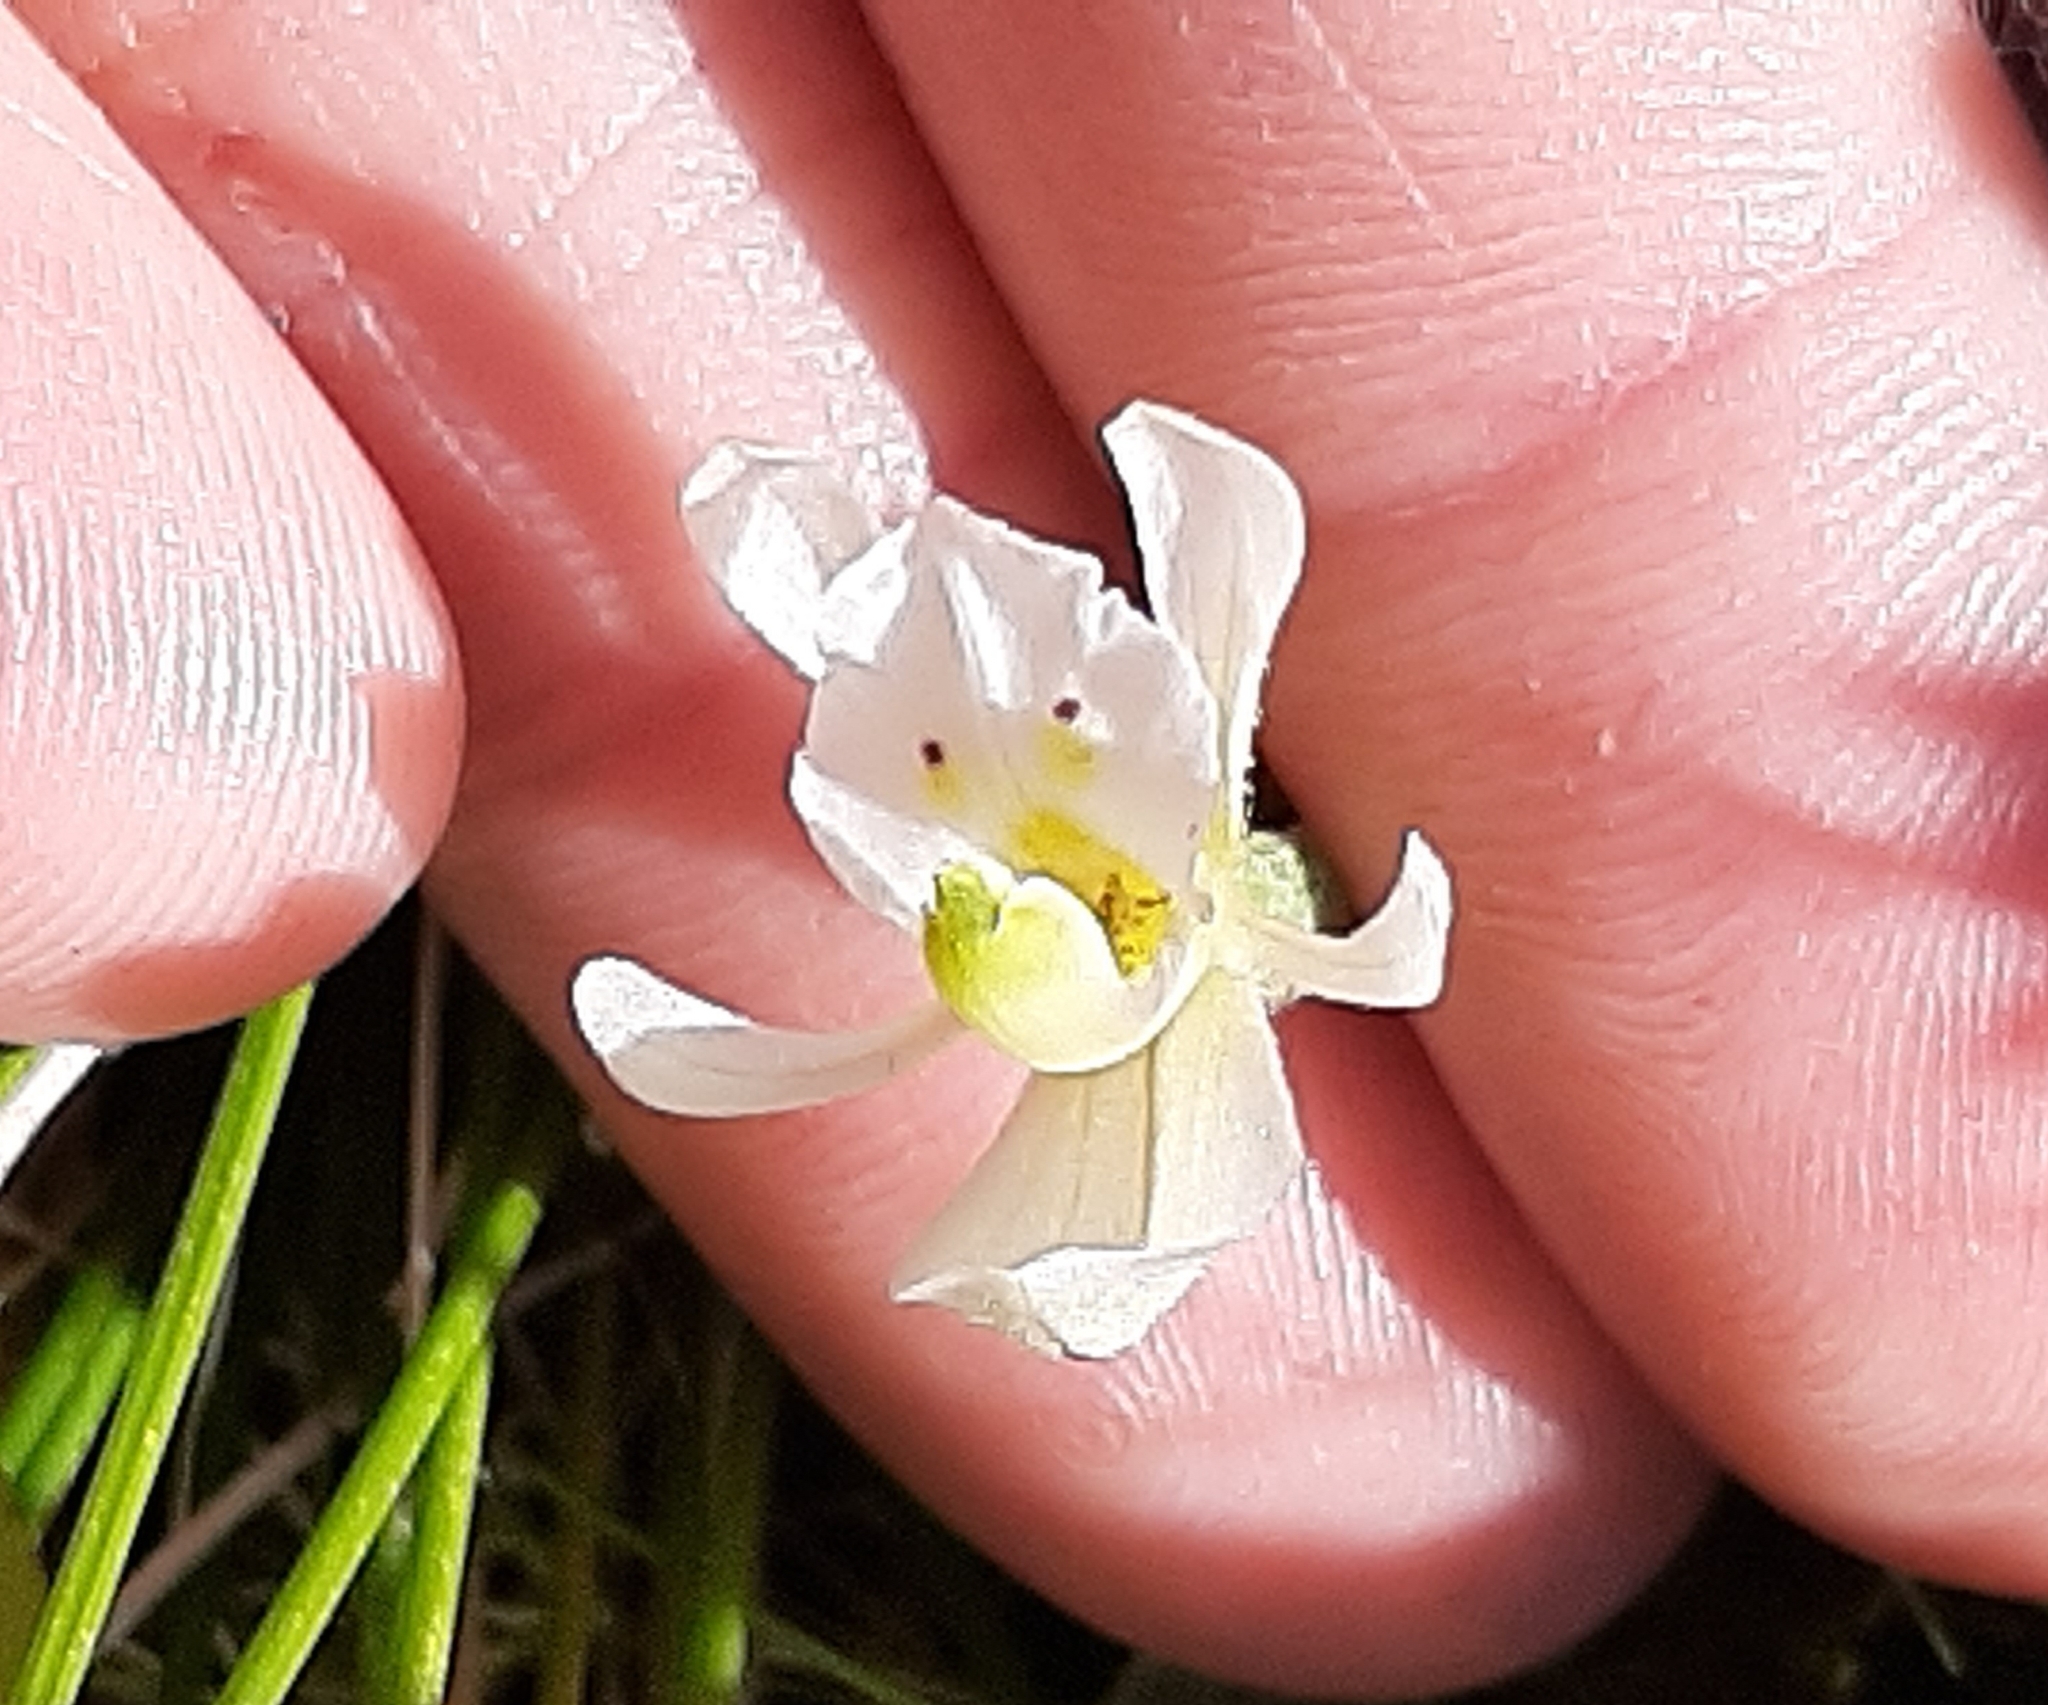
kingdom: Plantae
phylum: Tracheophyta
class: Liliopsida
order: Asparagales
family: Orchidaceae
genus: Aporostylis
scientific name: Aporostylis bifolia
